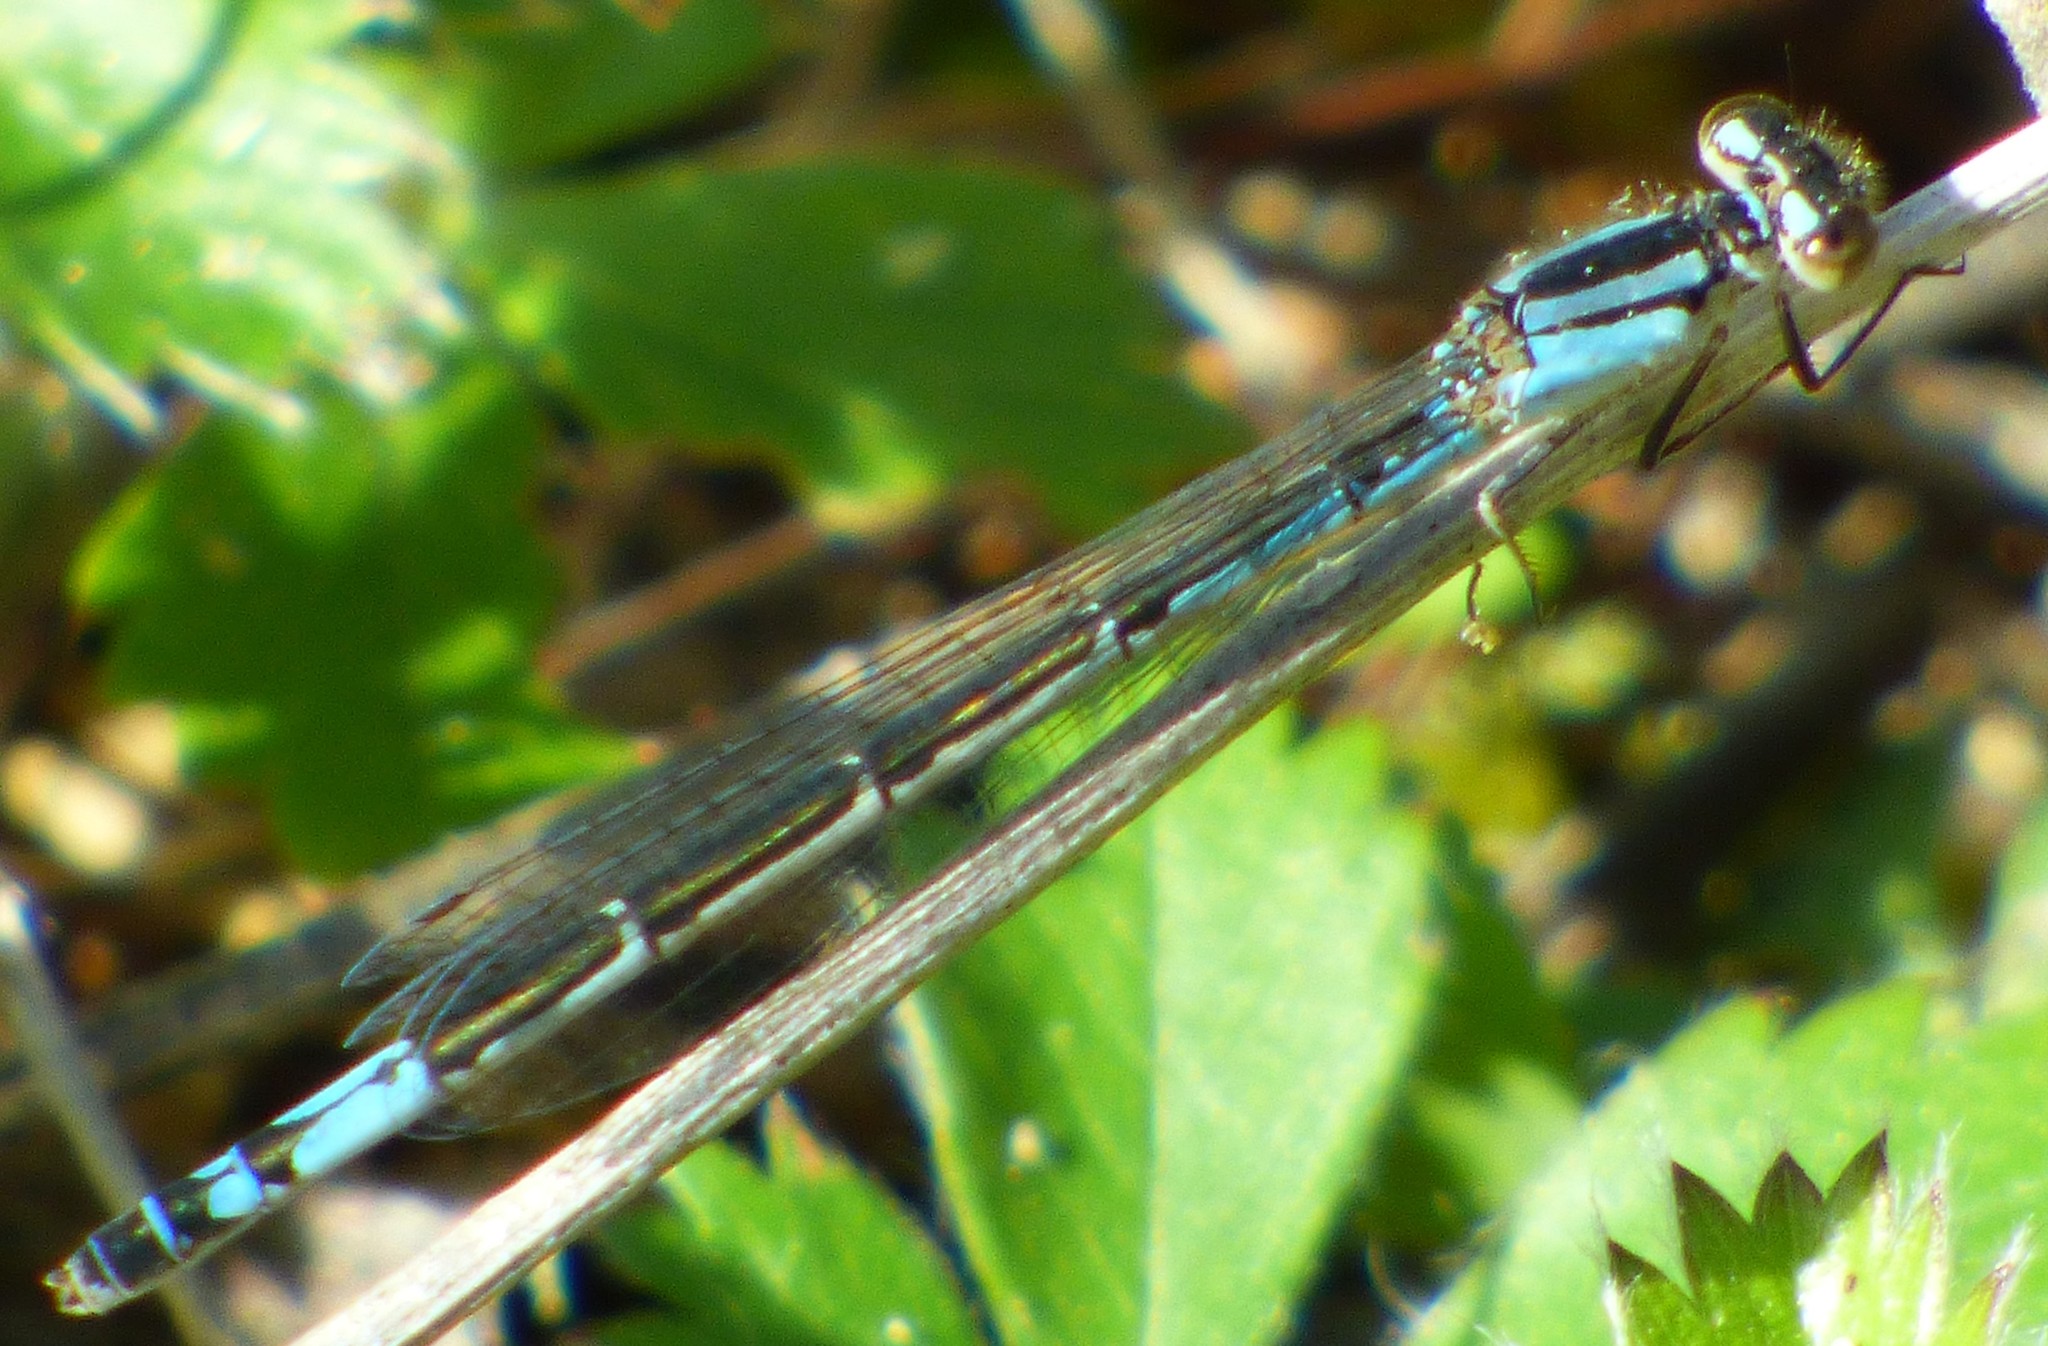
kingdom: Animalia
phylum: Arthropoda
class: Insecta
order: Odonata
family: Coenagrionidae
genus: Enallagma
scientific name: Enallagma aspersum
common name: Azure bluet
